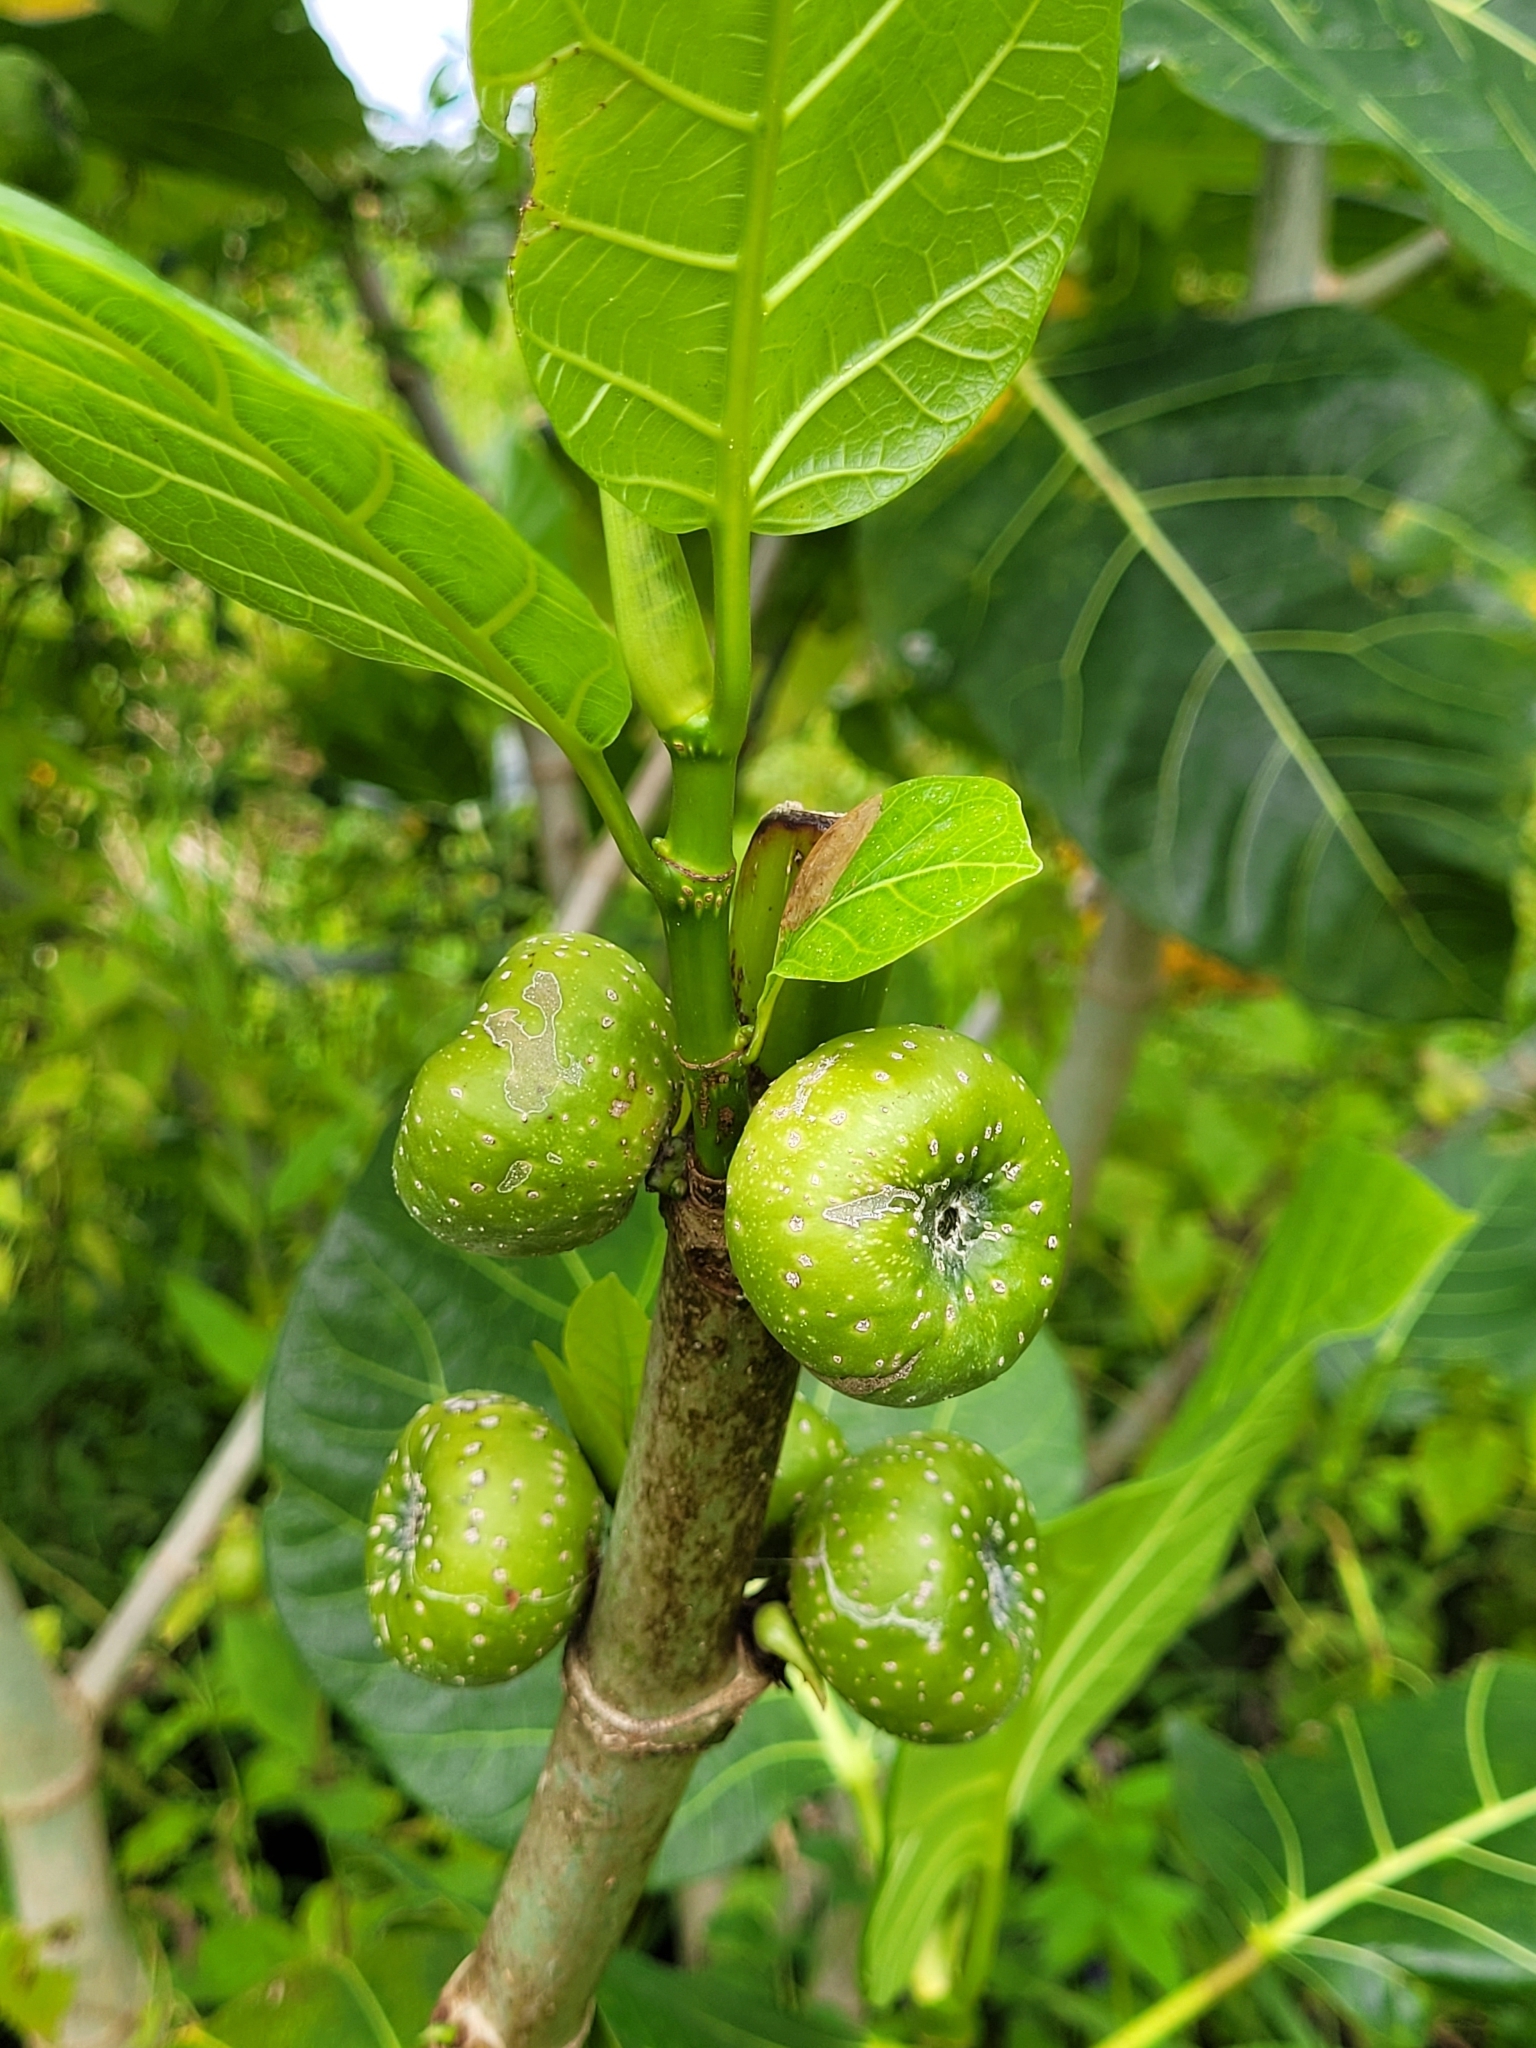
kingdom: Plantae
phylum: Tracheophyta
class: Magnoliopsida
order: Rosales
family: Moraceae
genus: Ficus
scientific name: Ficus septica
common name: Septic fig
